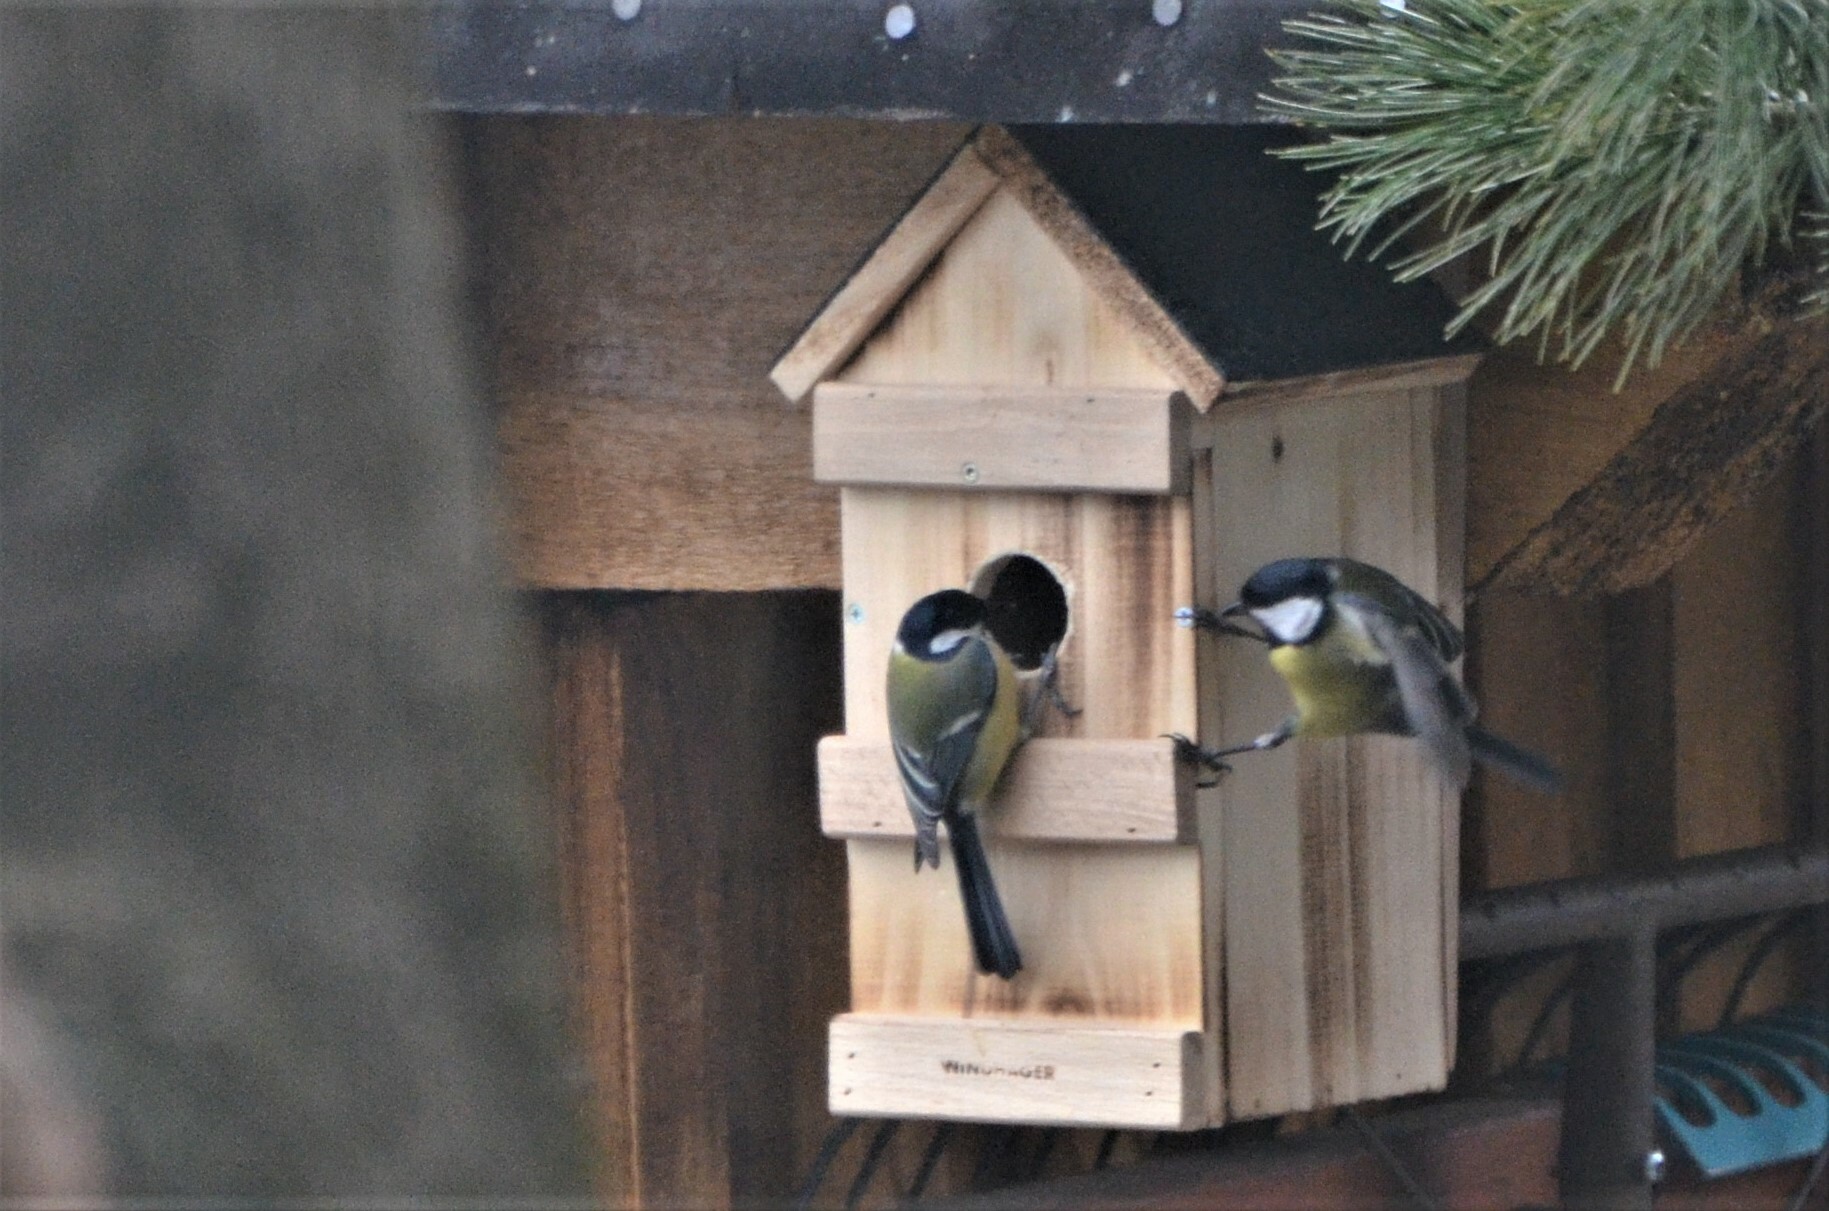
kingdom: Animalia
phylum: Chordata
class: Aves
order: Passeriformes
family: Paridae
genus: Parus
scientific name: Parus major
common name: Great tit
